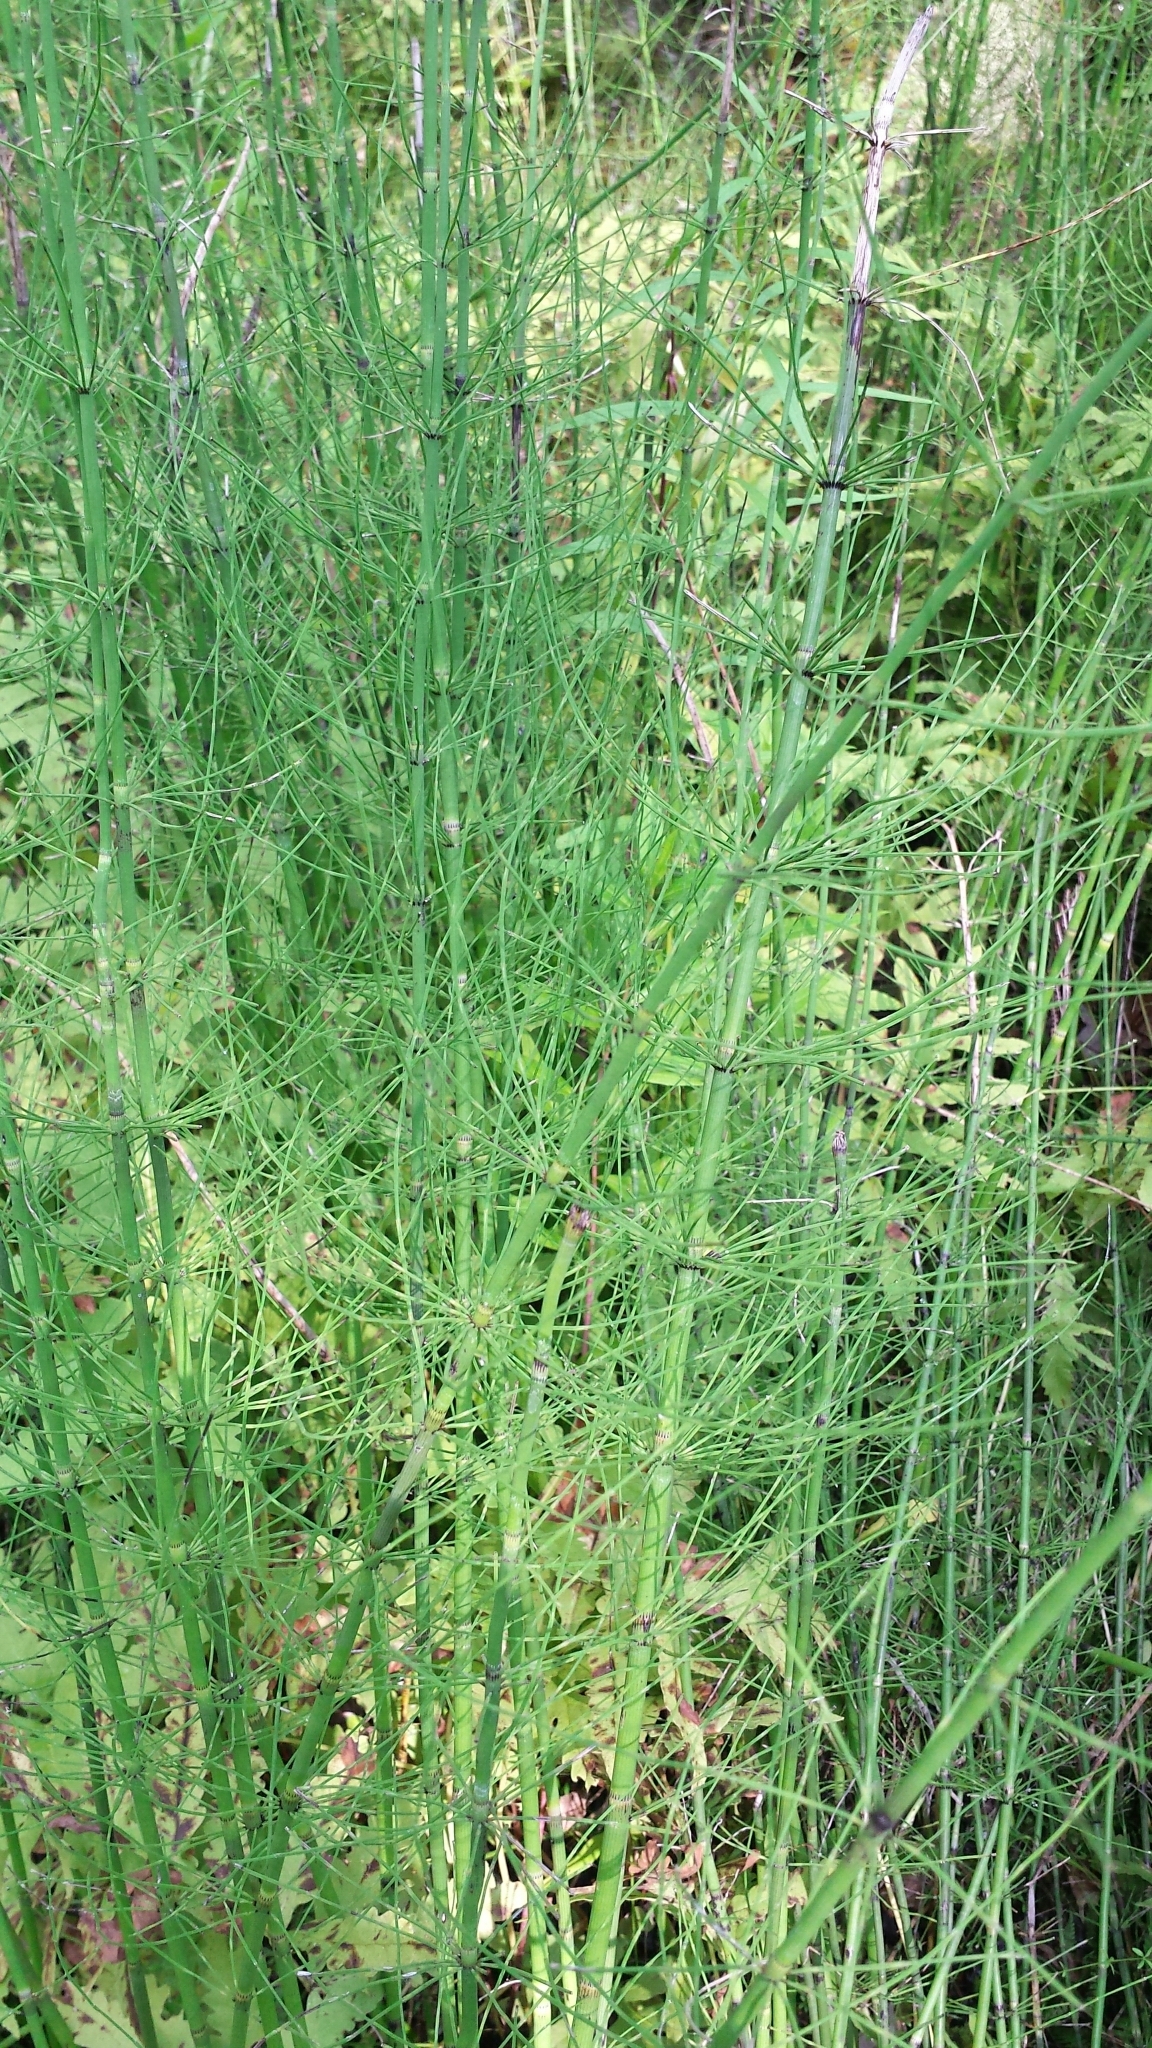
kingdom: Plantae
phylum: Tracheophyta
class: Polypodiopsida
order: Equisetales
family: Equisetaceae
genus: Equisetum
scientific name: Equisetum fluviatile
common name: Water horsetail
